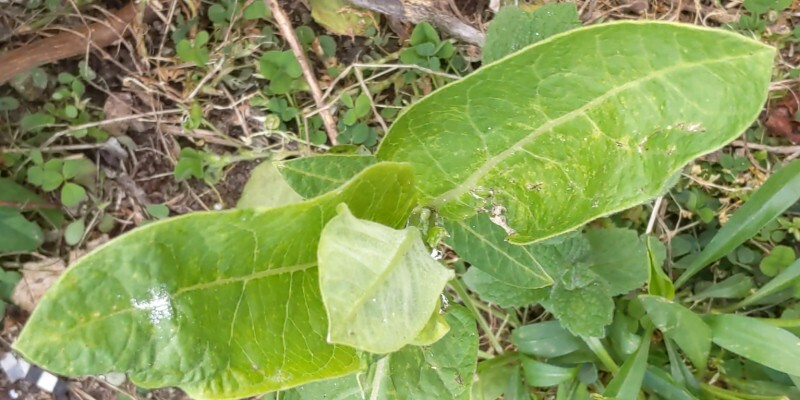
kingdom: Plantae
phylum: Tracheophyta
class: Magnoliopsida
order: Gentianales
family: Apocynaceae
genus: Asclepias
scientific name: Asclepias syriaca
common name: Common milkweed
